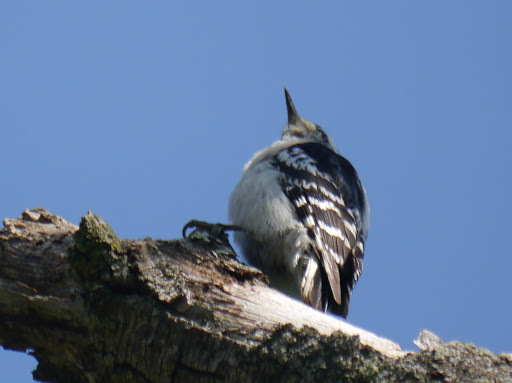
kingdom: Animalia
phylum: Chordata
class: Aves
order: Piciformes
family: Picidae
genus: Leuconotopicus
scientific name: Leuconotopicus villosus
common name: Hairy woodpecker
